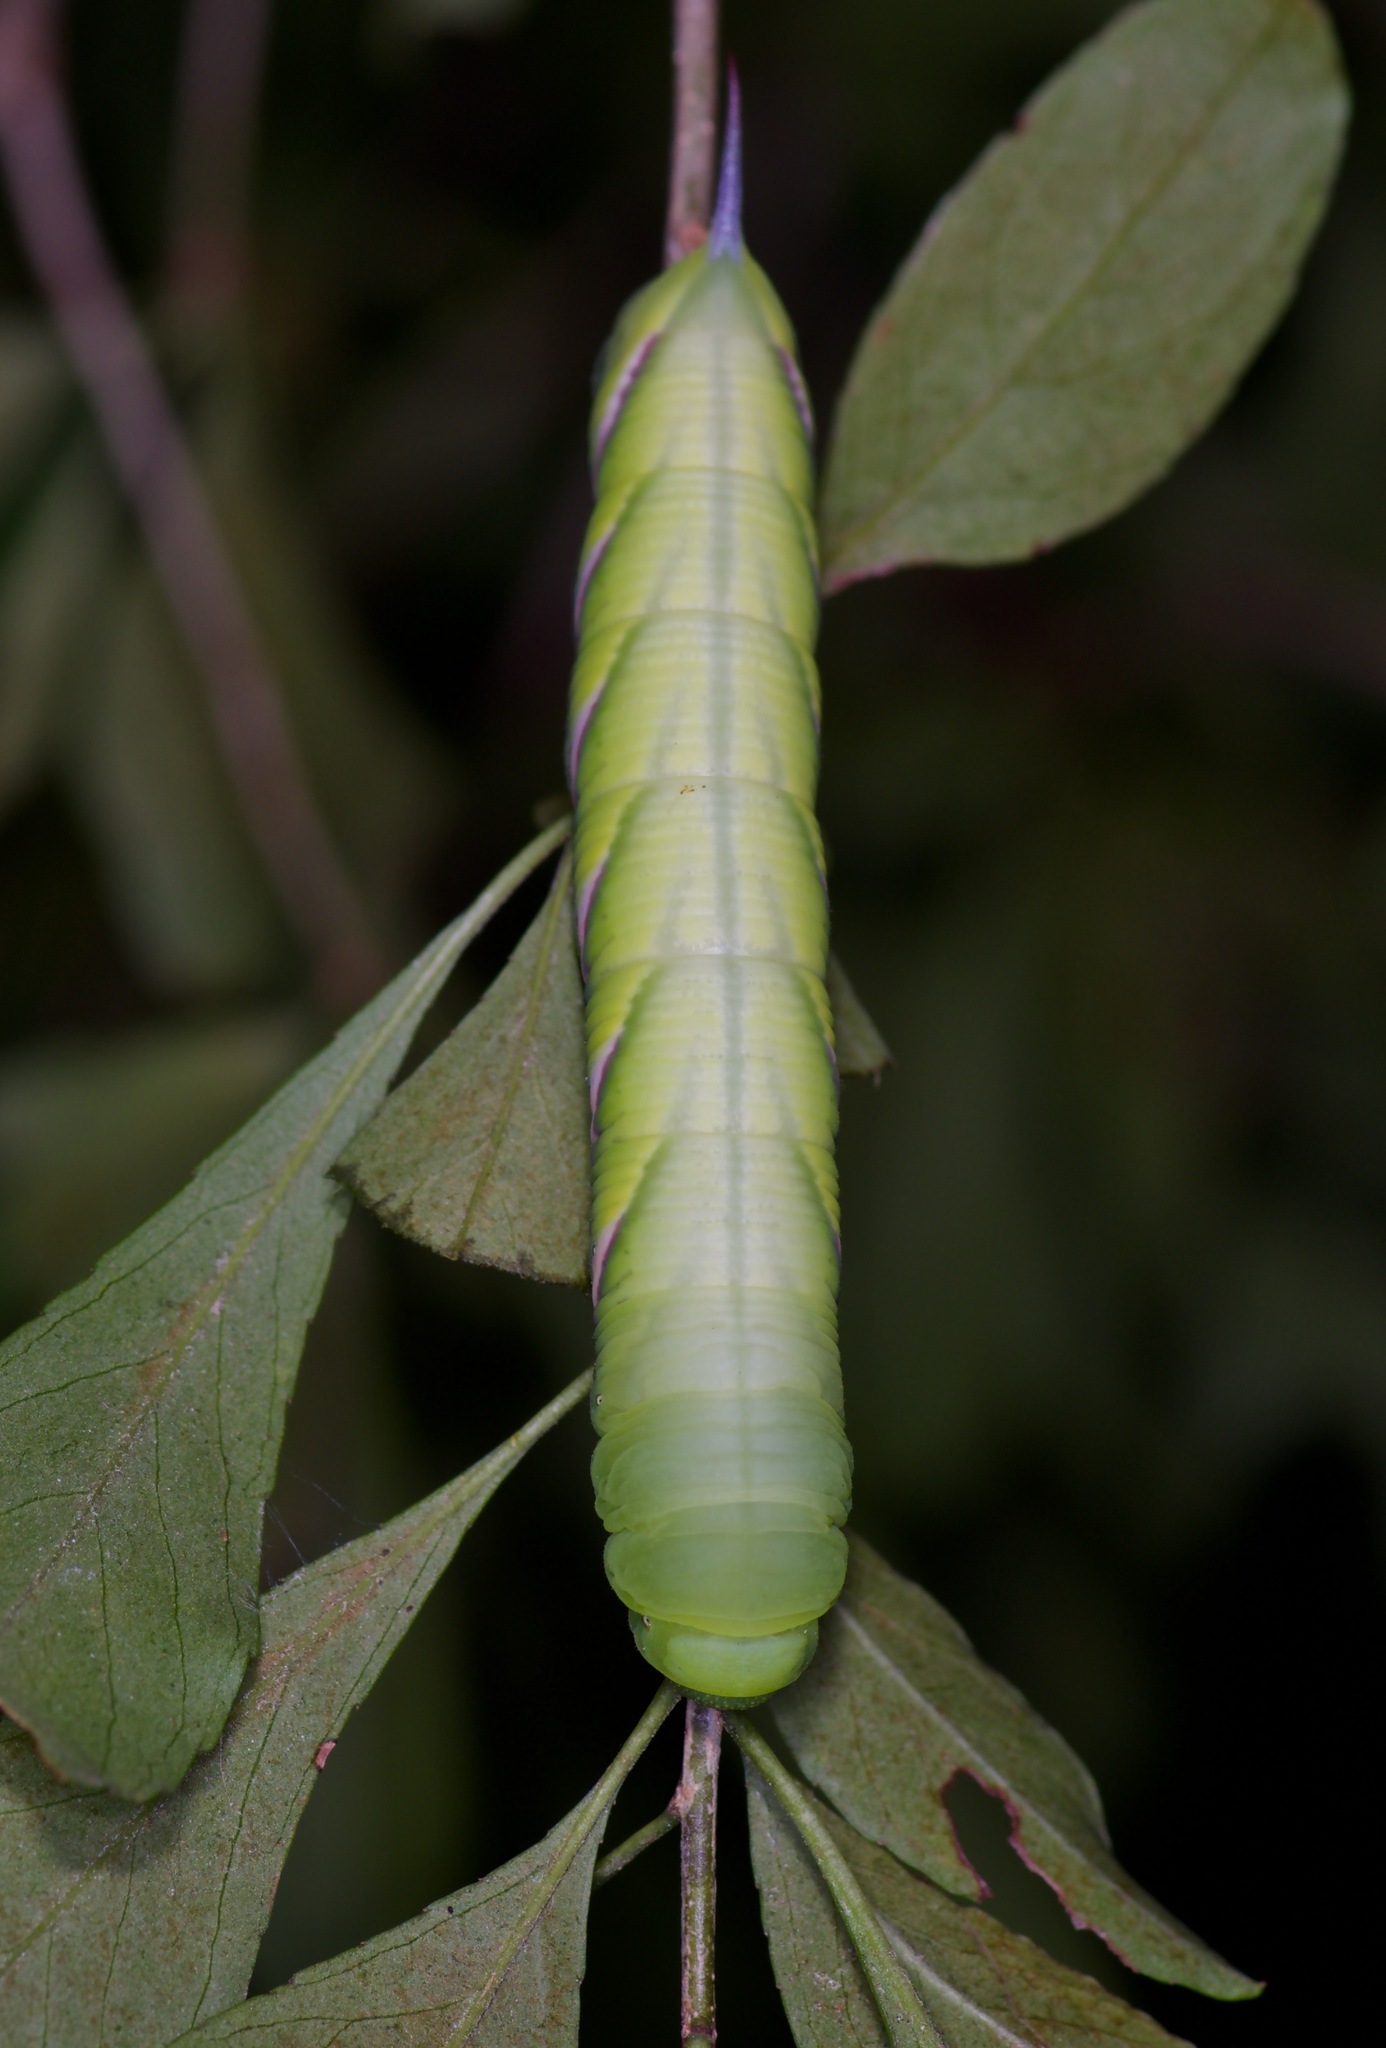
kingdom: Animalia
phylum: Arthropoda
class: Insecta
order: Lepidoptera
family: Sphingidae
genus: Dolba
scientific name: Dolba hyloeus
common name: Pawpaw sphinx
